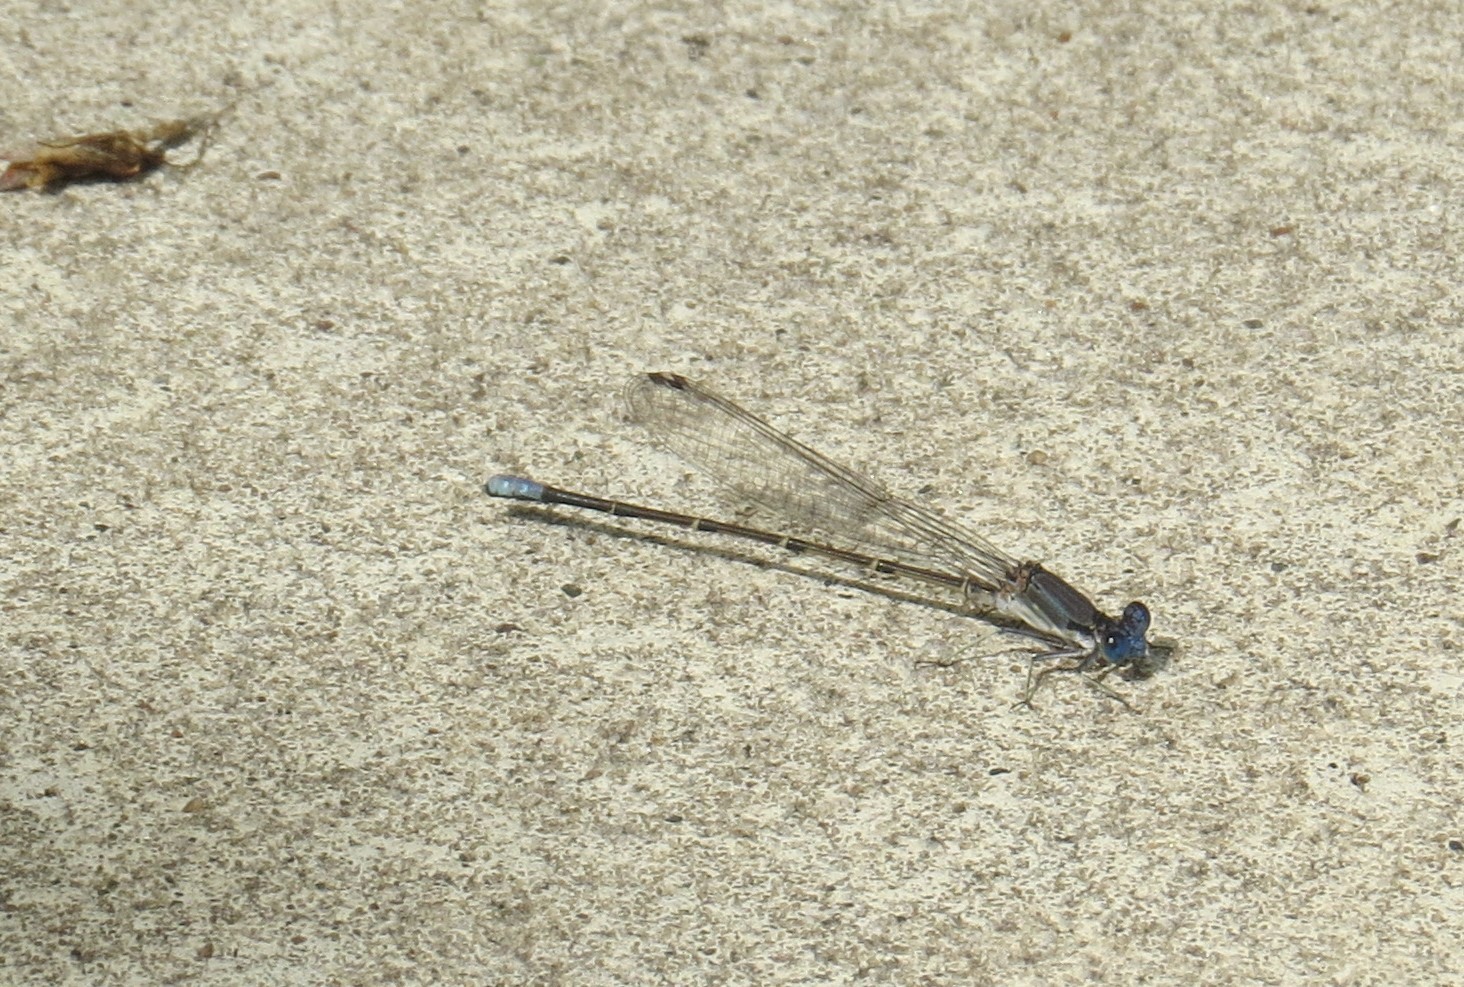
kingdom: Animalia
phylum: Arthropoda
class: Insecta
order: Odonata
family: Coenagrionidae
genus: Argia
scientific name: Argia apicalis
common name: Blue-fronted dancer
